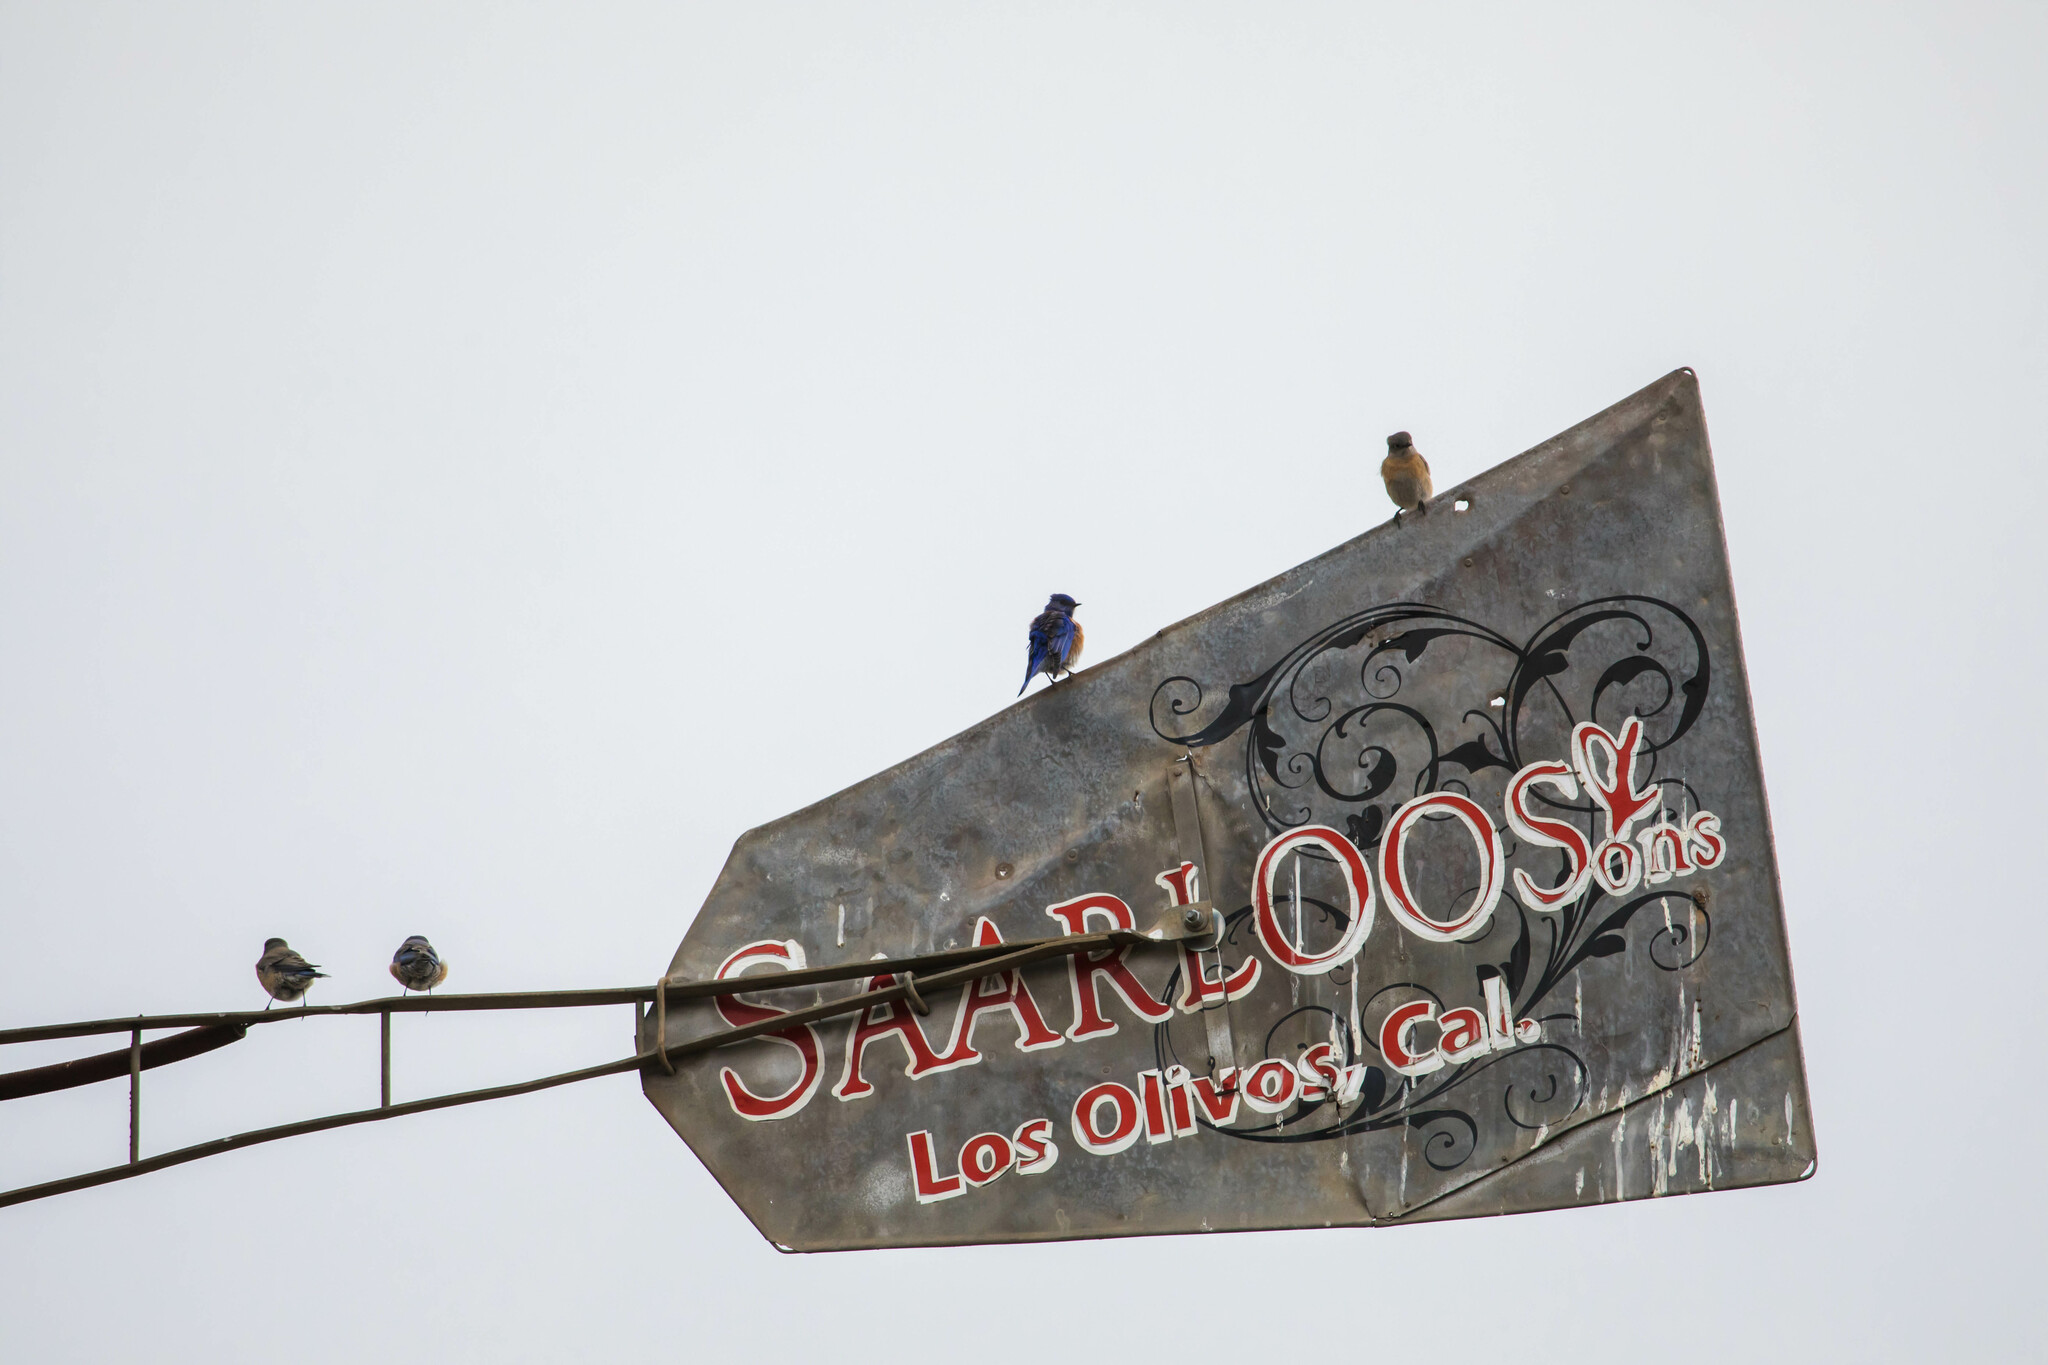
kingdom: Animalia
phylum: Chordata
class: Aves
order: Passeriformes
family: Turdidae
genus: Sialia
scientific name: Sialia mexicana
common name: Western bluebird
